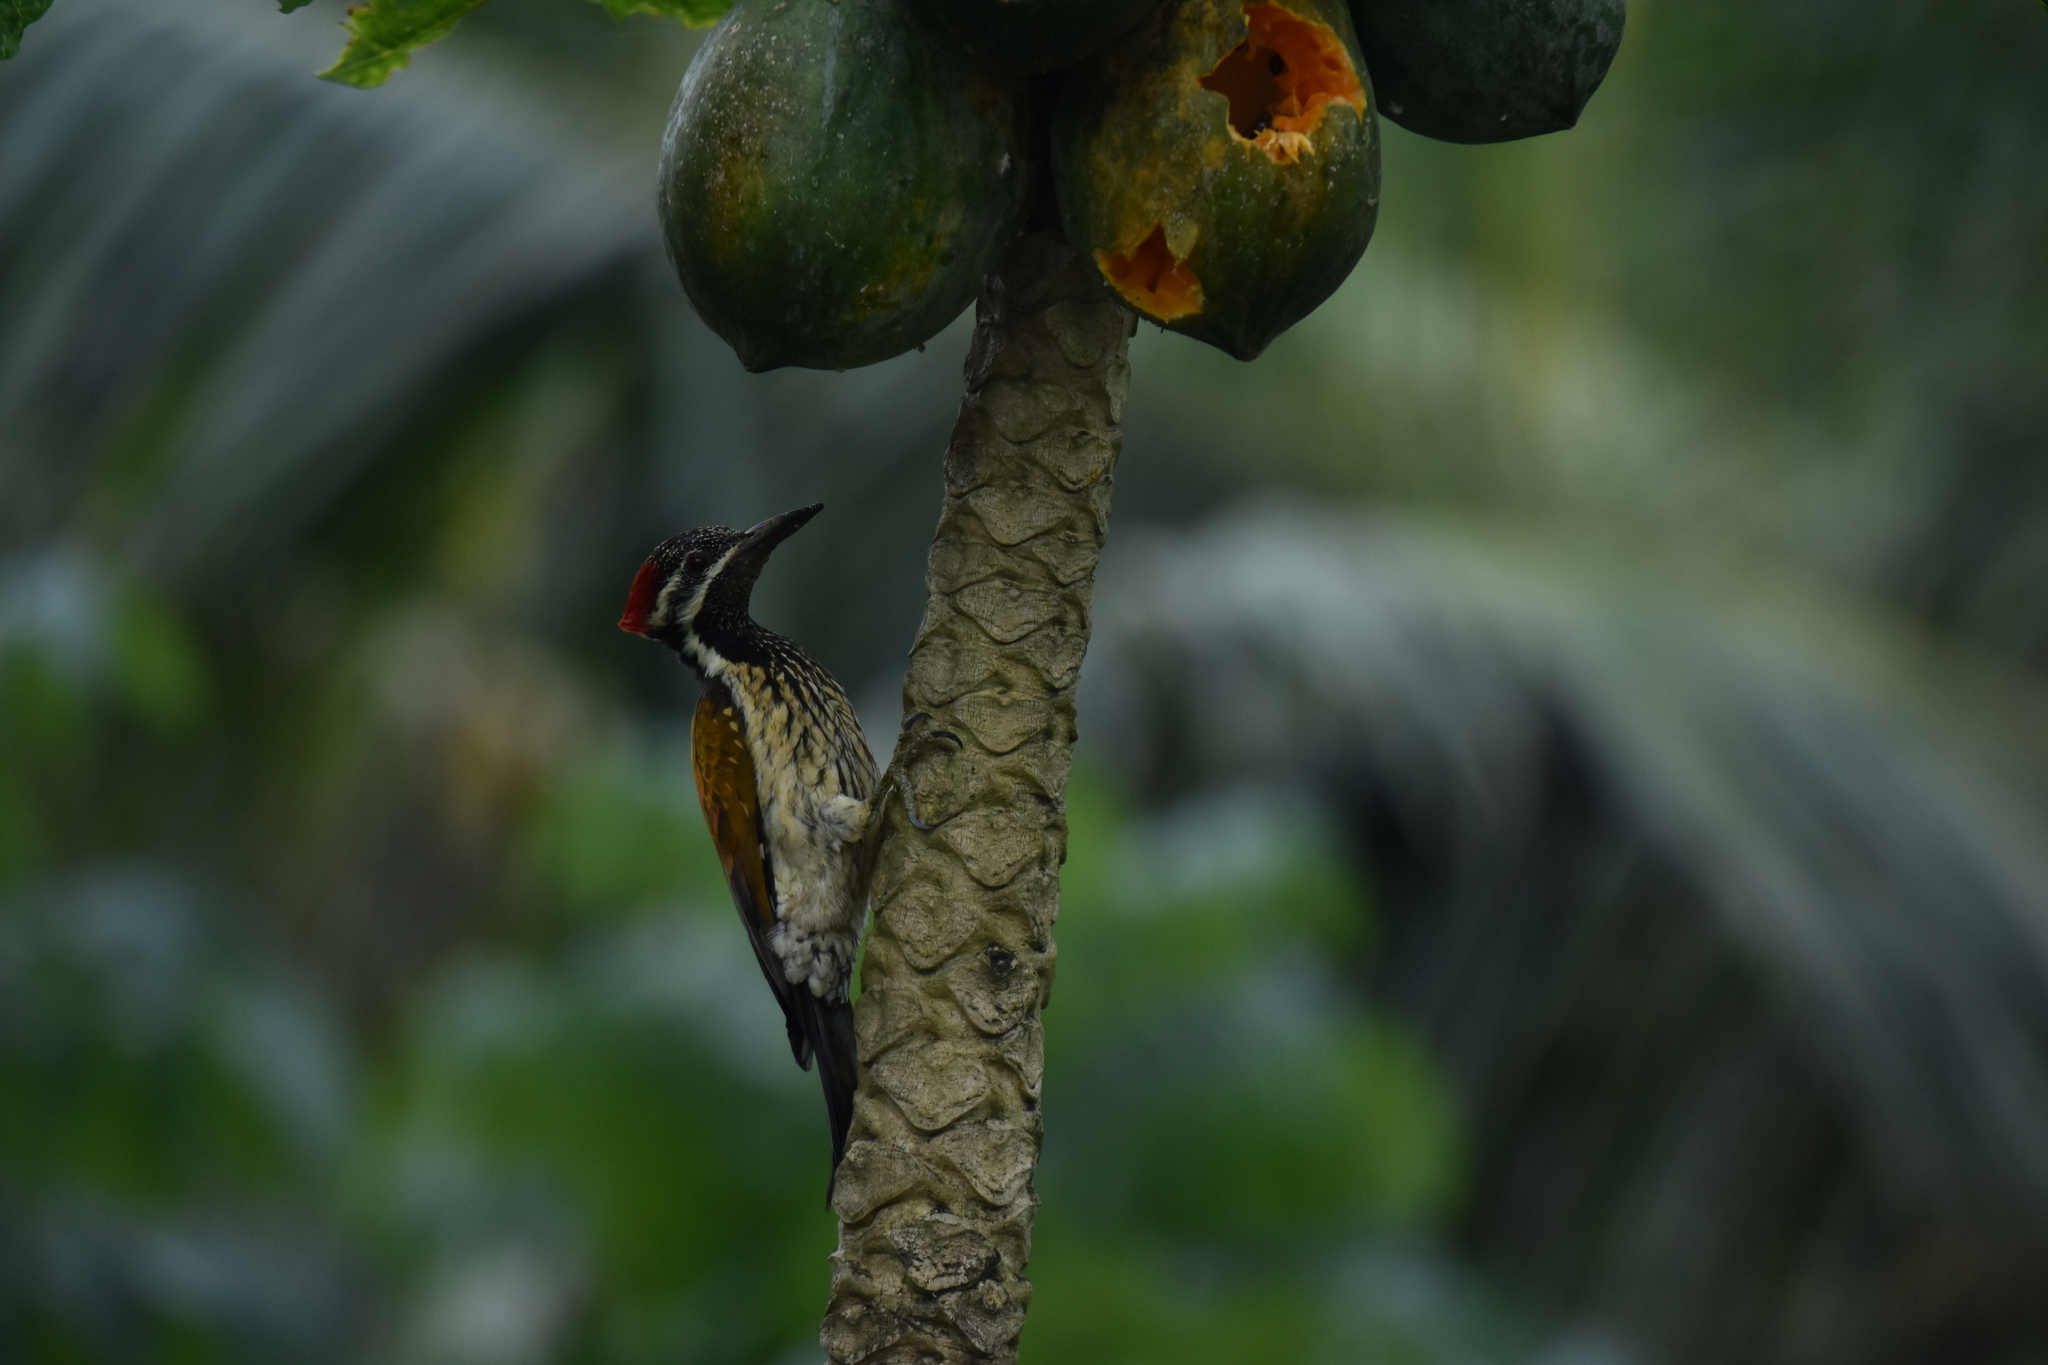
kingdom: Animalia
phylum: Chordata
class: Aves
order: Piciformes
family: Picidae
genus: Dinopium
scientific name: Dinopium benghalense
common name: Black-rumped flameback
